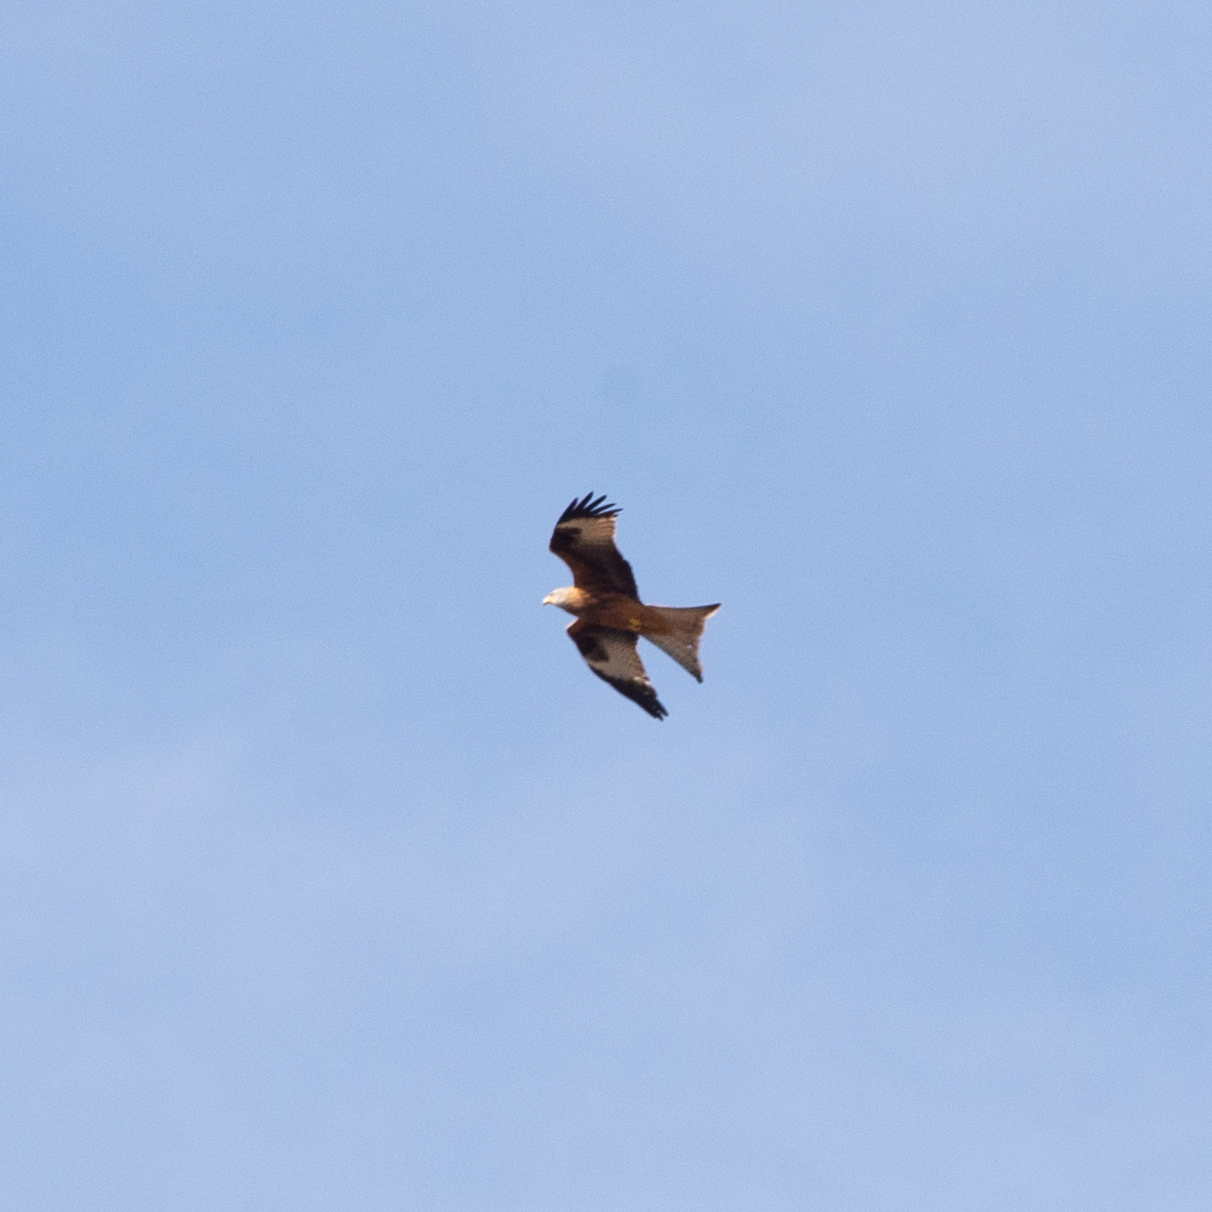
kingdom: Animalia
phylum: Chordata
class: Aves
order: Accipitriformes
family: Accipitridae
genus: Milvus
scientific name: Milvus milvus
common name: Red kite
